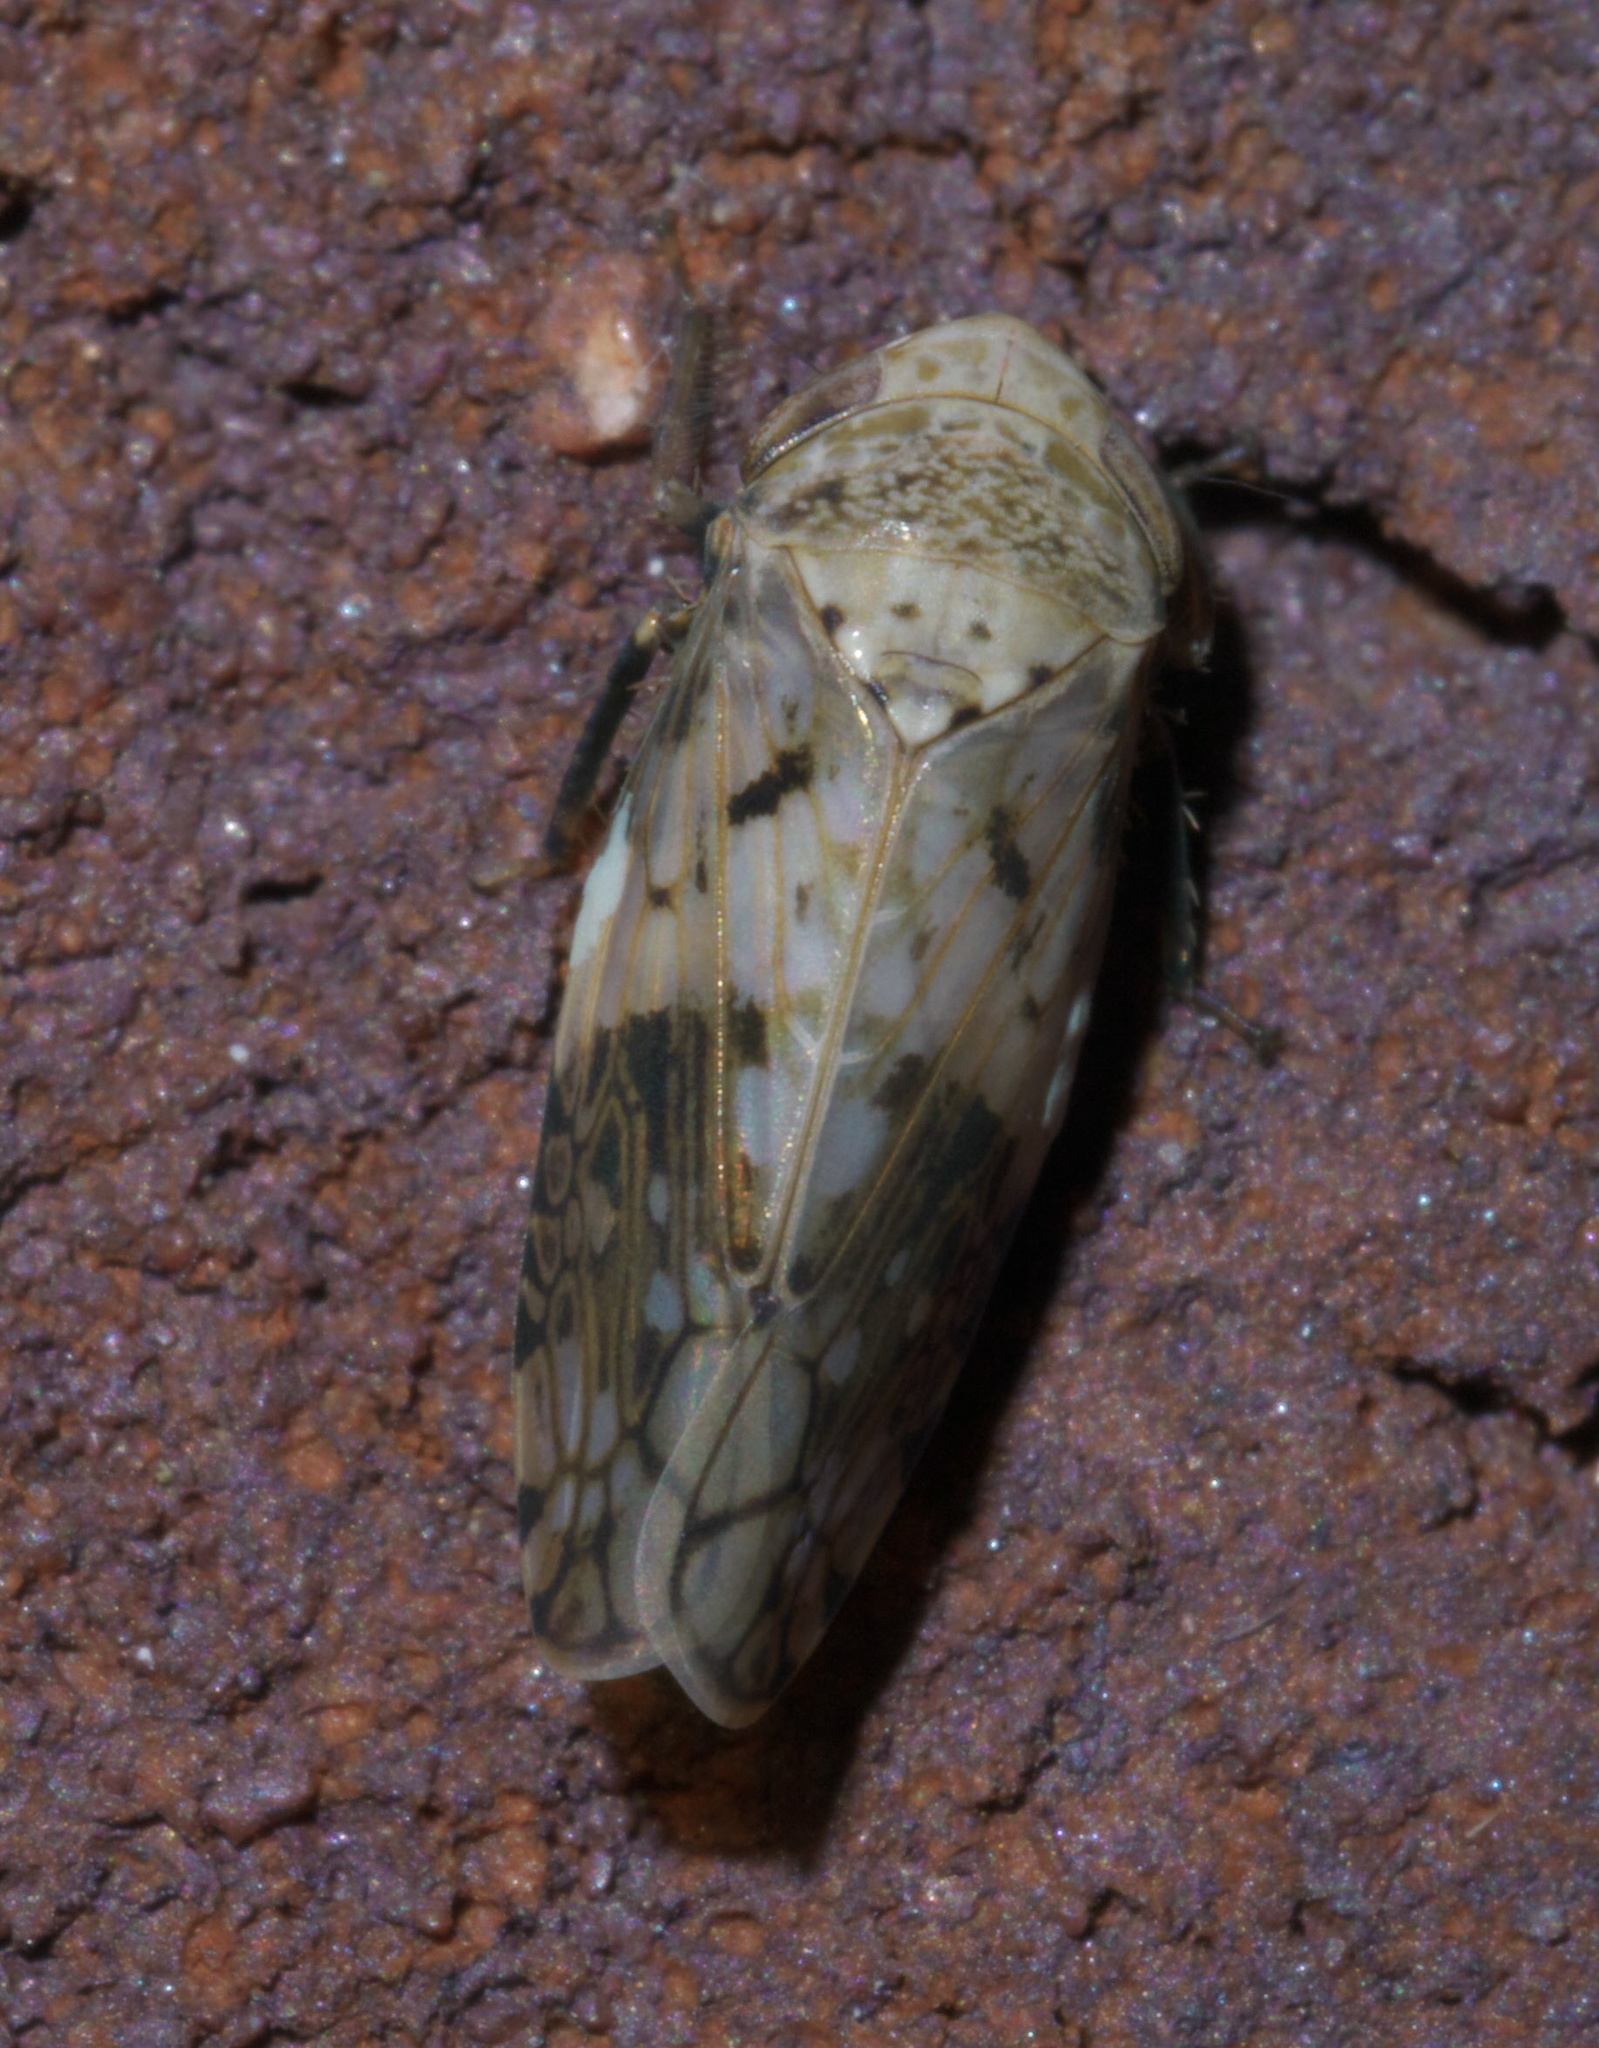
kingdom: Animalia
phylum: Arthropoda
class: Insecta
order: Hemiptera
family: Cicadellidae
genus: Menosoma
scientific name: Menosoma cinctum
